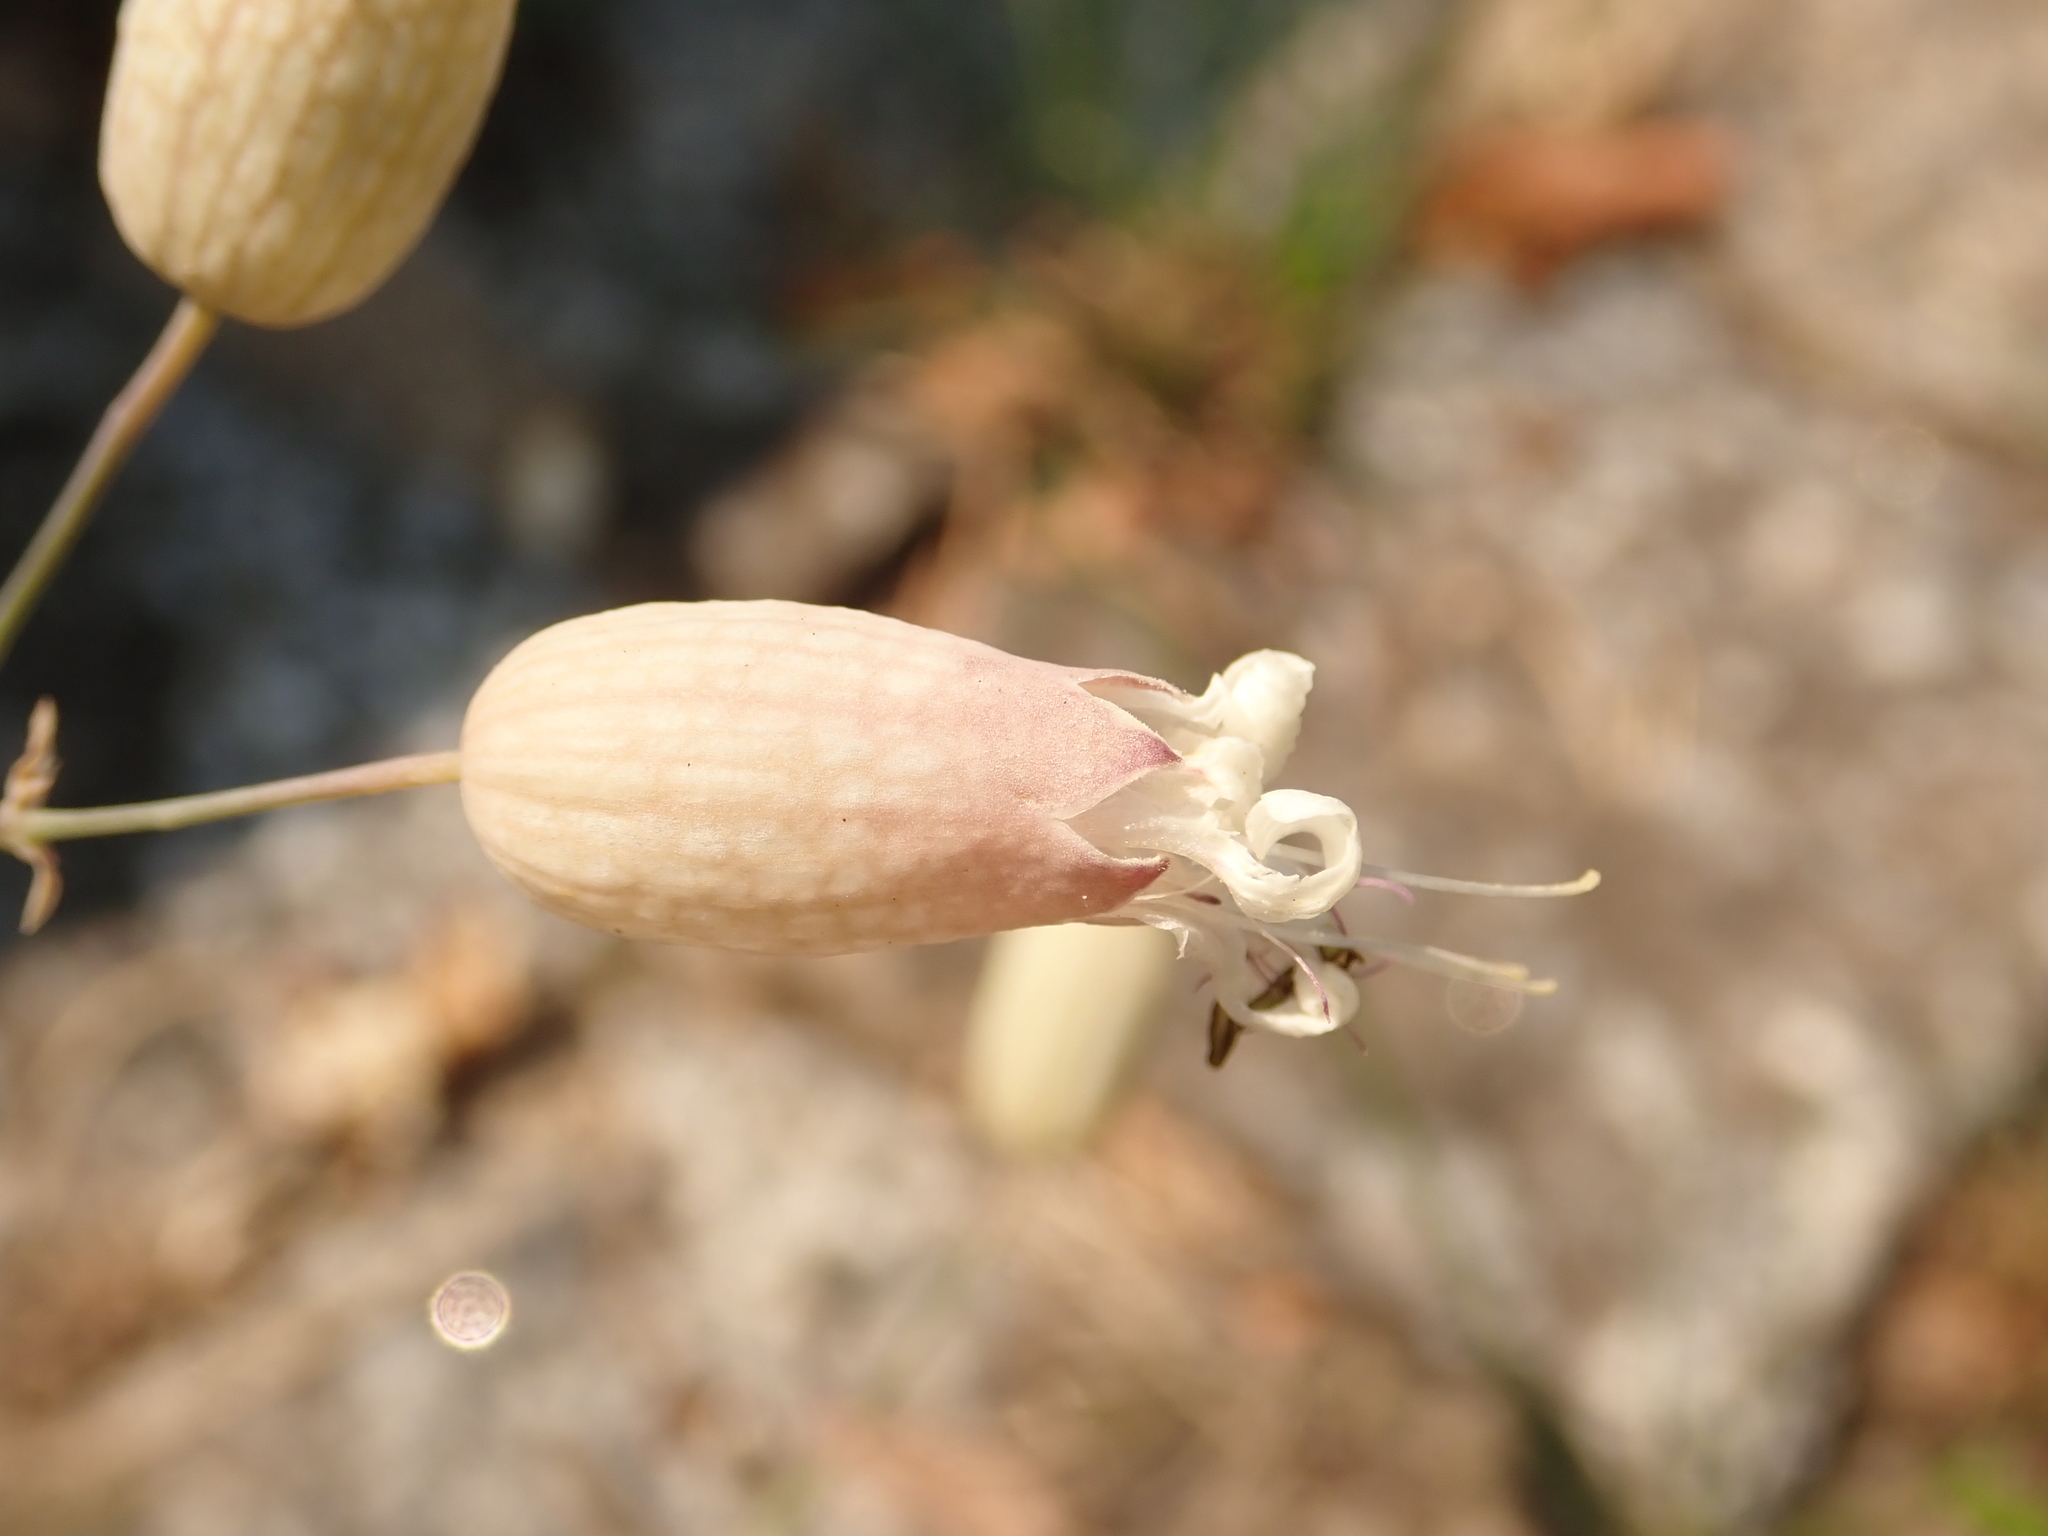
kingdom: Plantae
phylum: Tracheophyta
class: Magnoliopsida
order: Caryophyllales
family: Caryophyllaceae
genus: Silene
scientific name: Silene vulgaris
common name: Bladder campion
